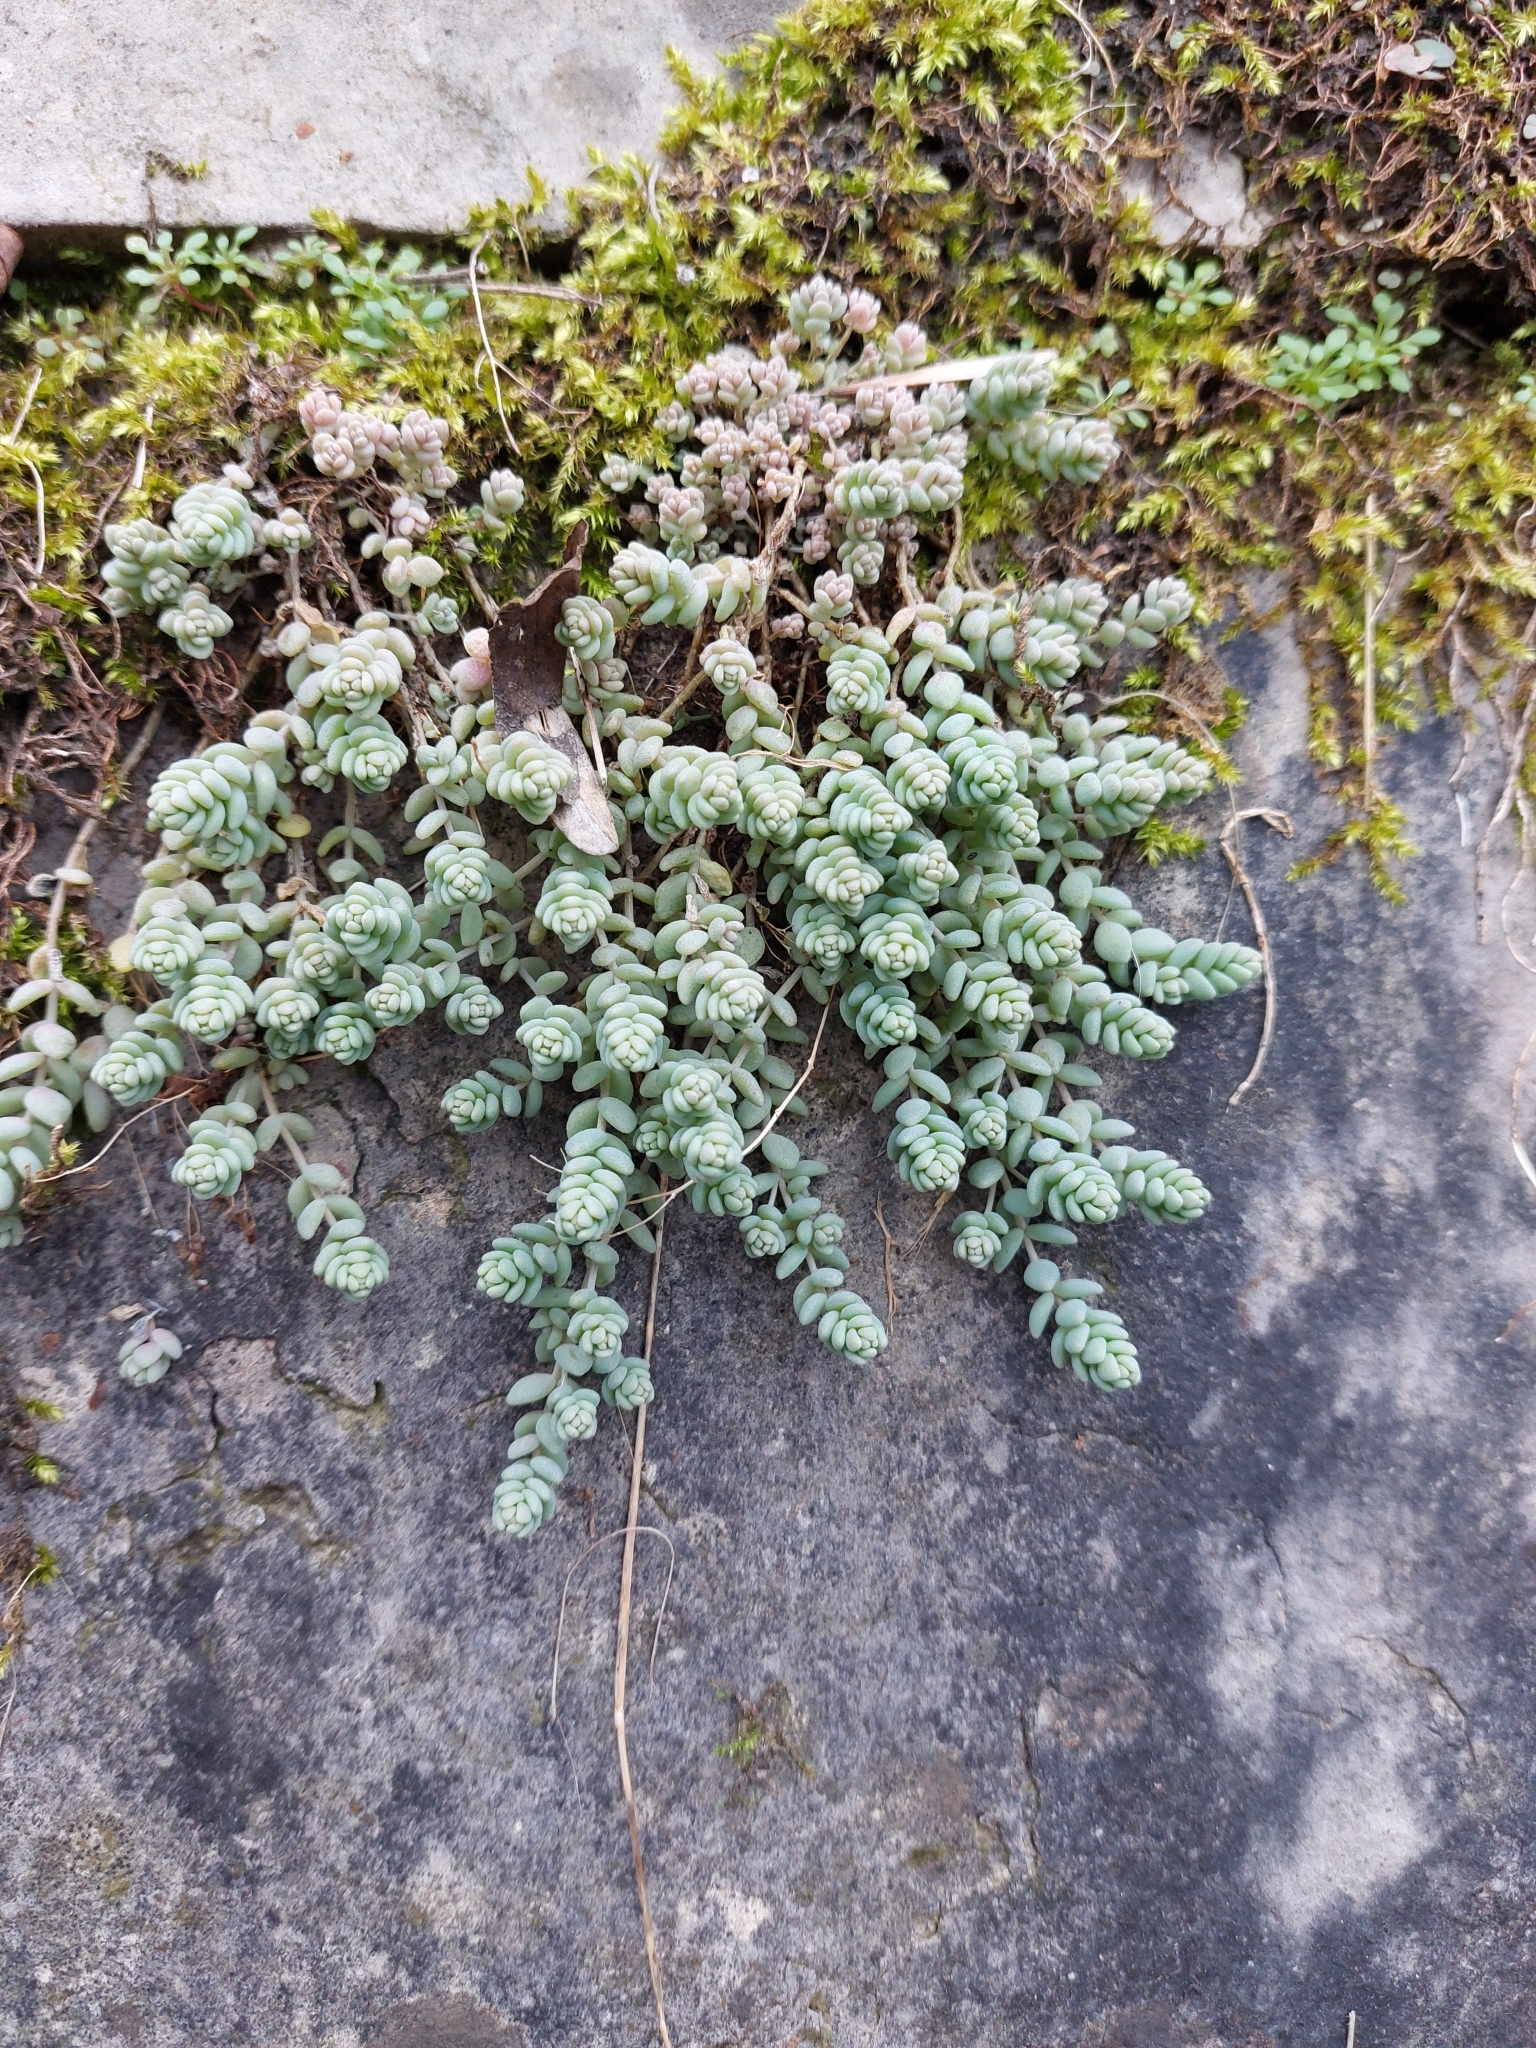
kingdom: Plantae
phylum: Tracheophyta
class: Magnoliopsida
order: Saxifragales
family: Crassulaceae
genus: Sedum
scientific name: Sedum dasyphyllum
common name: Thick-leaf stonecrop
